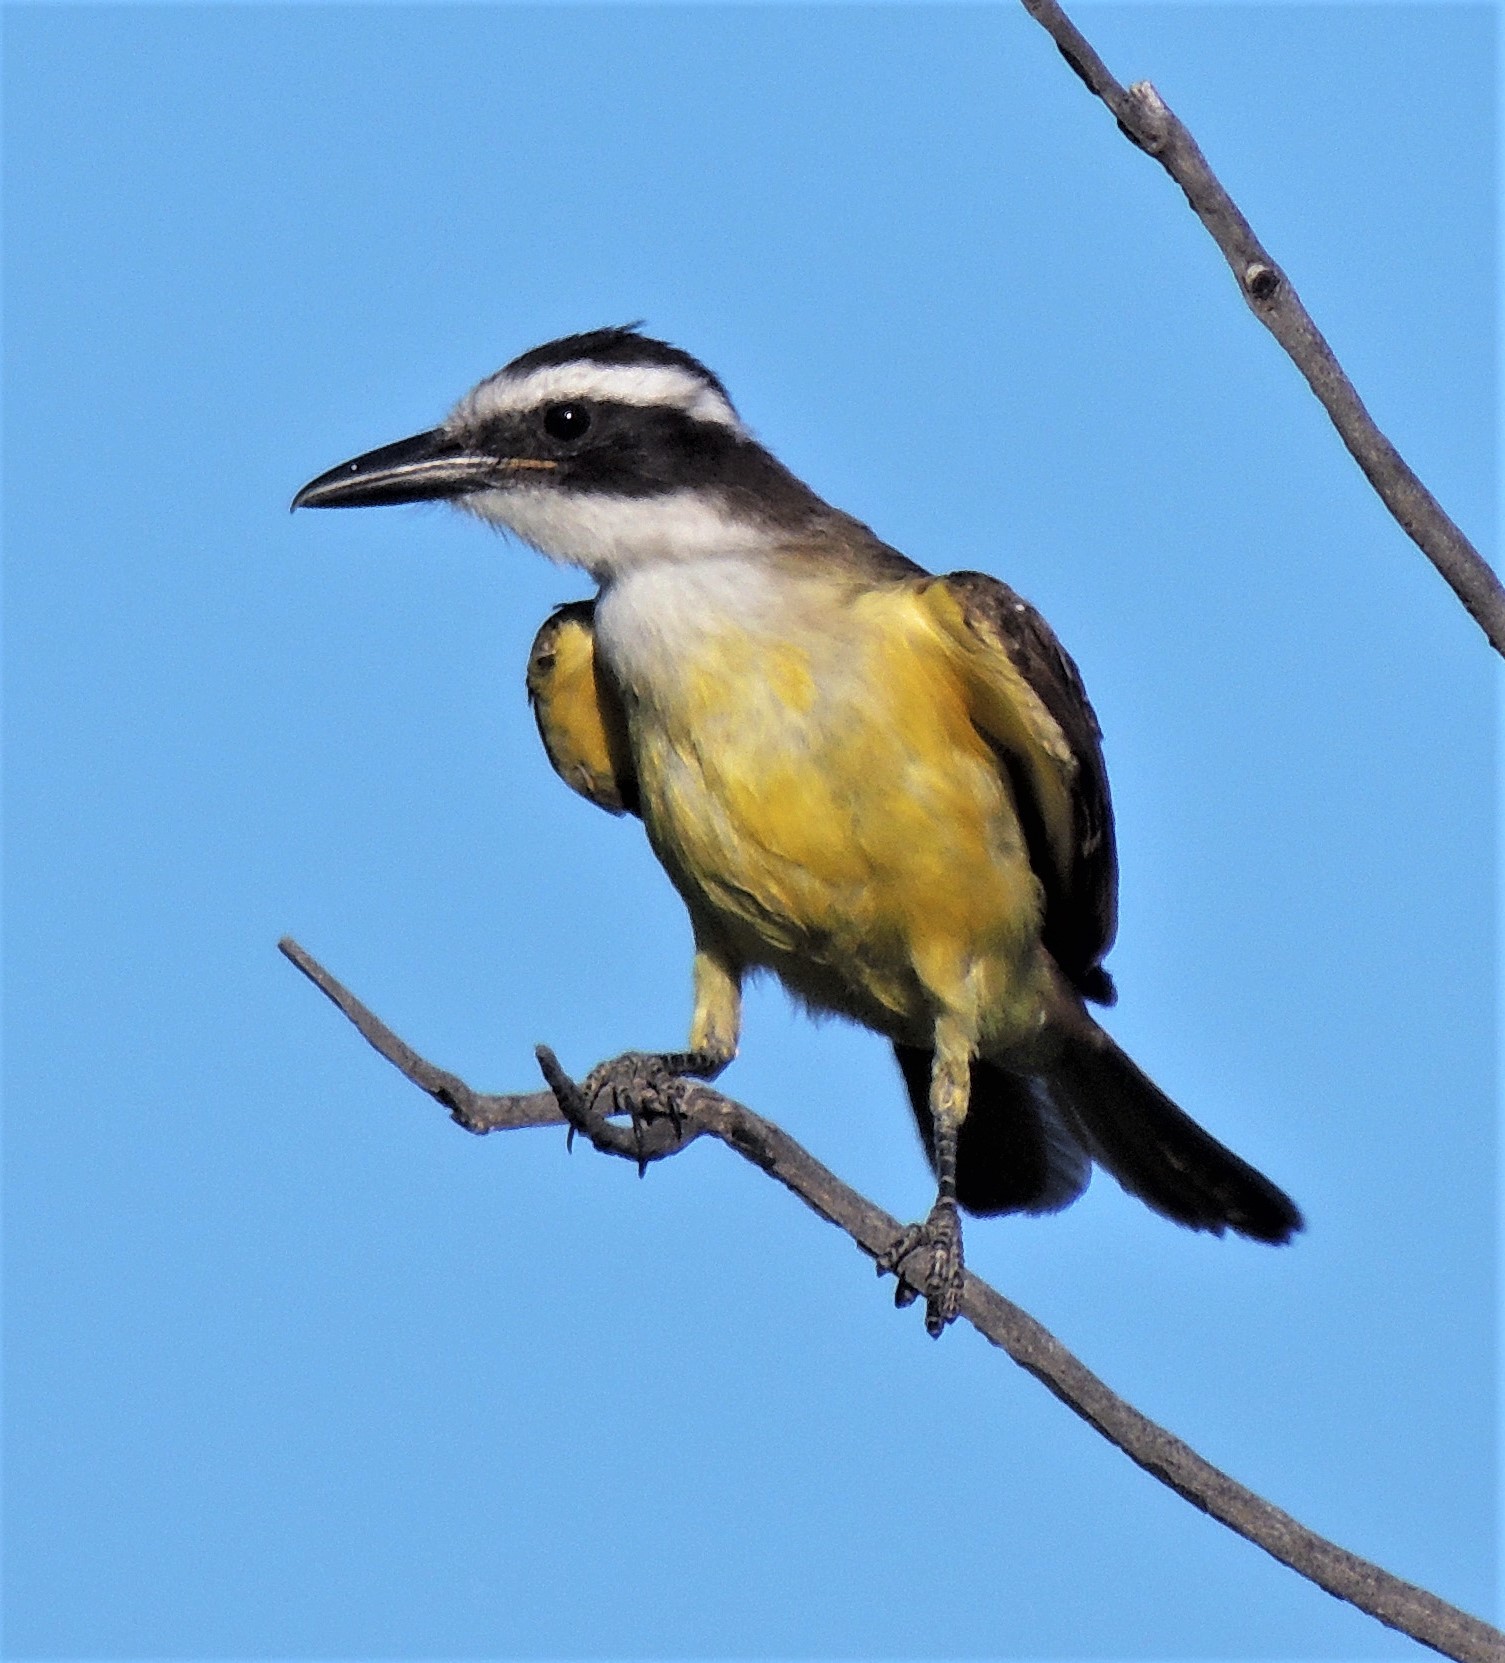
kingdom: Animalia
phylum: Chordata
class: Aves
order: Passeriformes
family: Tyrannidae
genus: Pitangus
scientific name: Pitangus sulphuratus
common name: Great kiskadee
